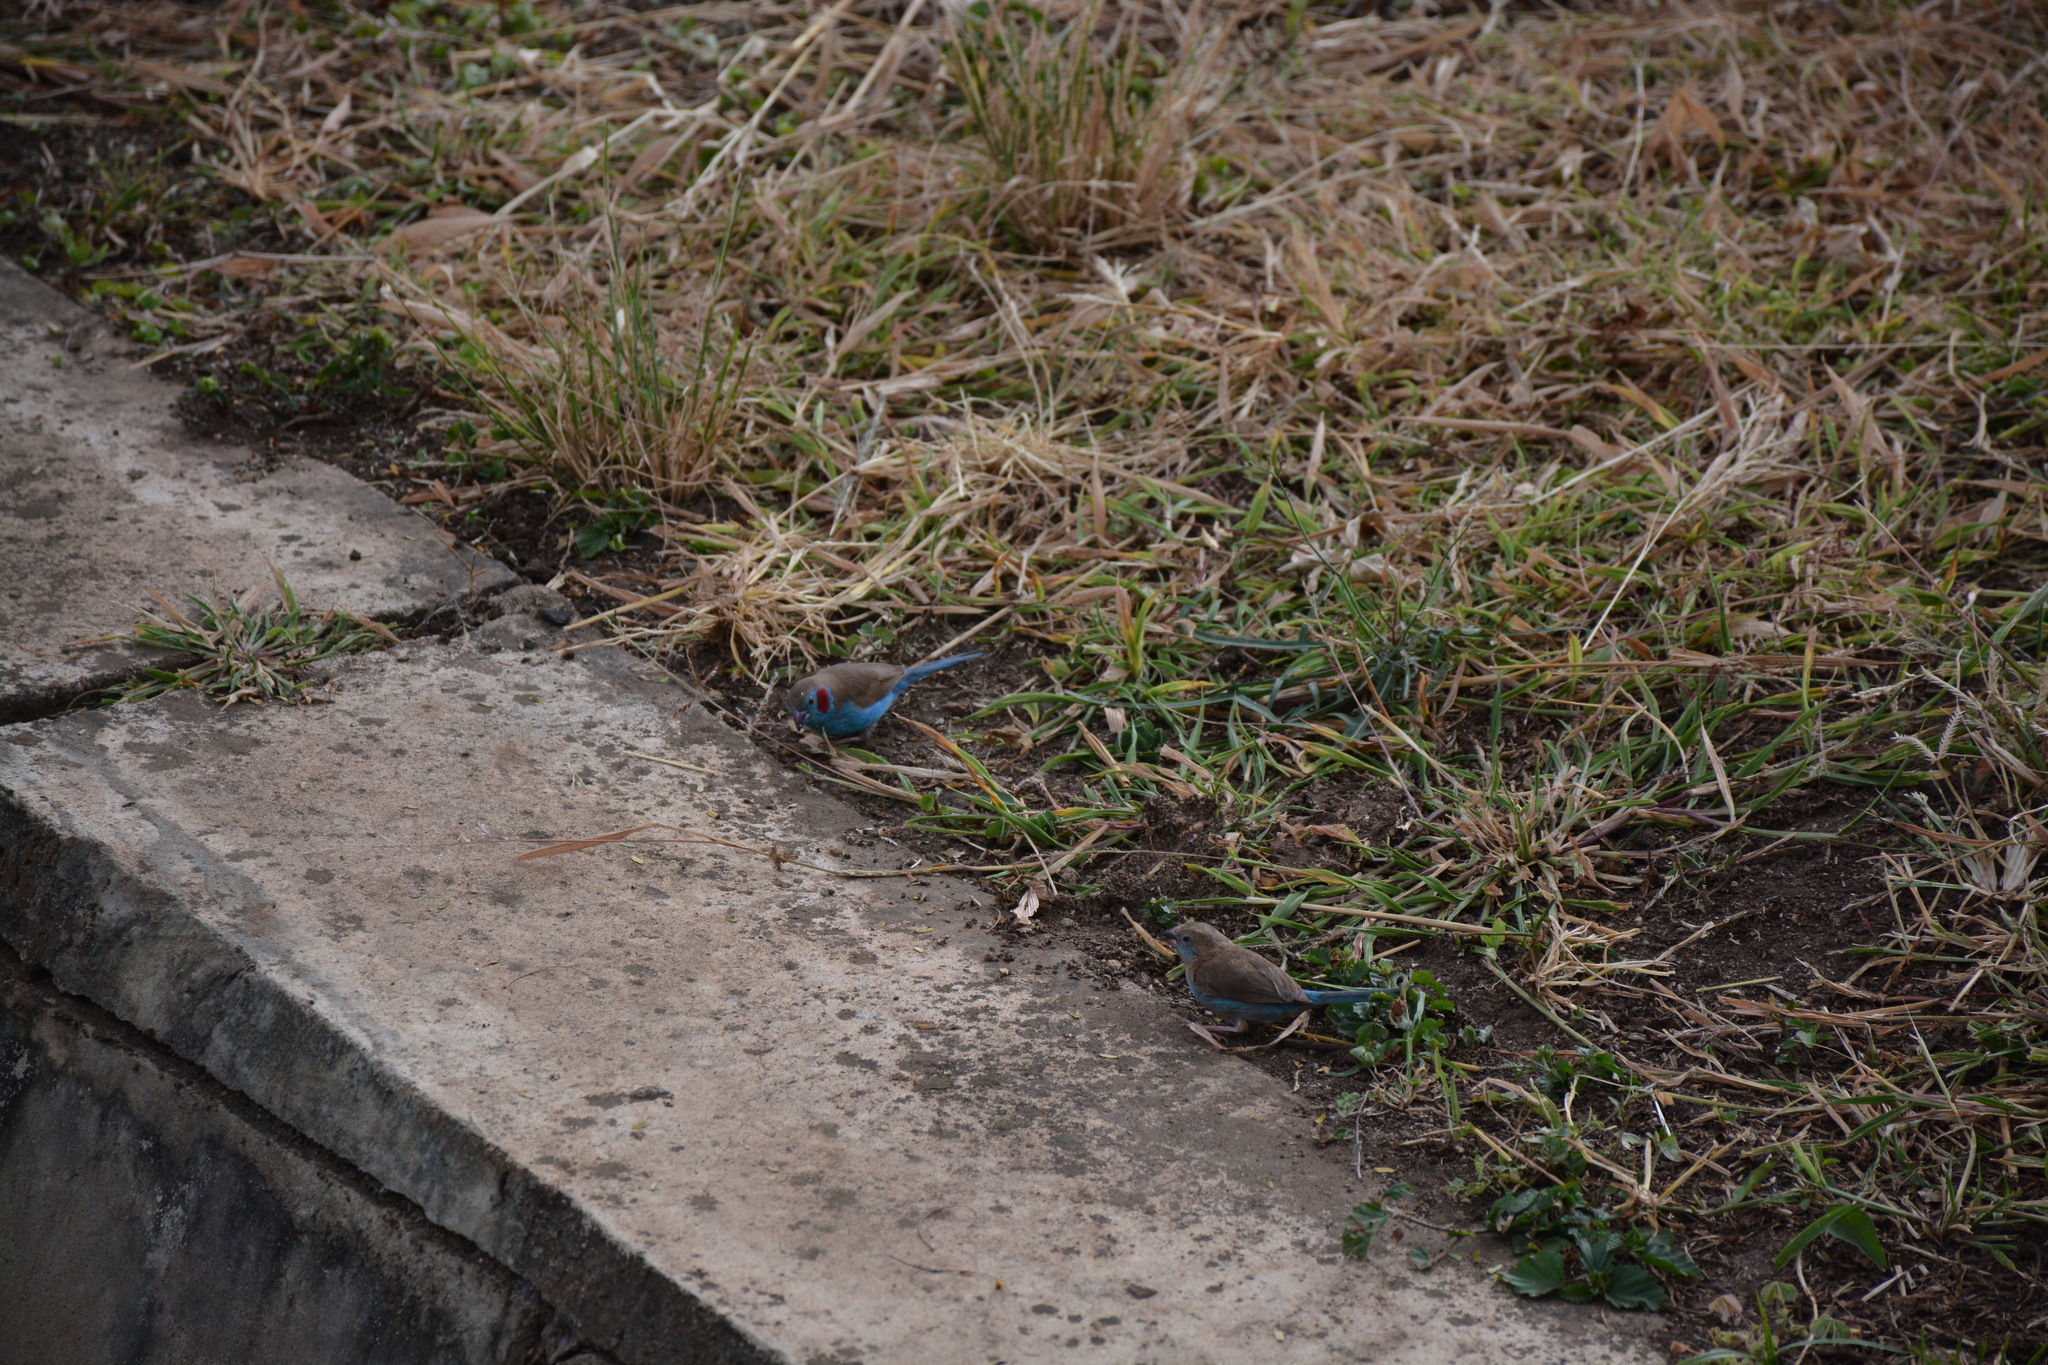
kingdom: Animalia
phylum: Chordata
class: Aves
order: Passeriformes
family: Estrildidae
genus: Uraeginthus
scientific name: Uraeginthus bengalus
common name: Red-cheeked cordon-bleu
